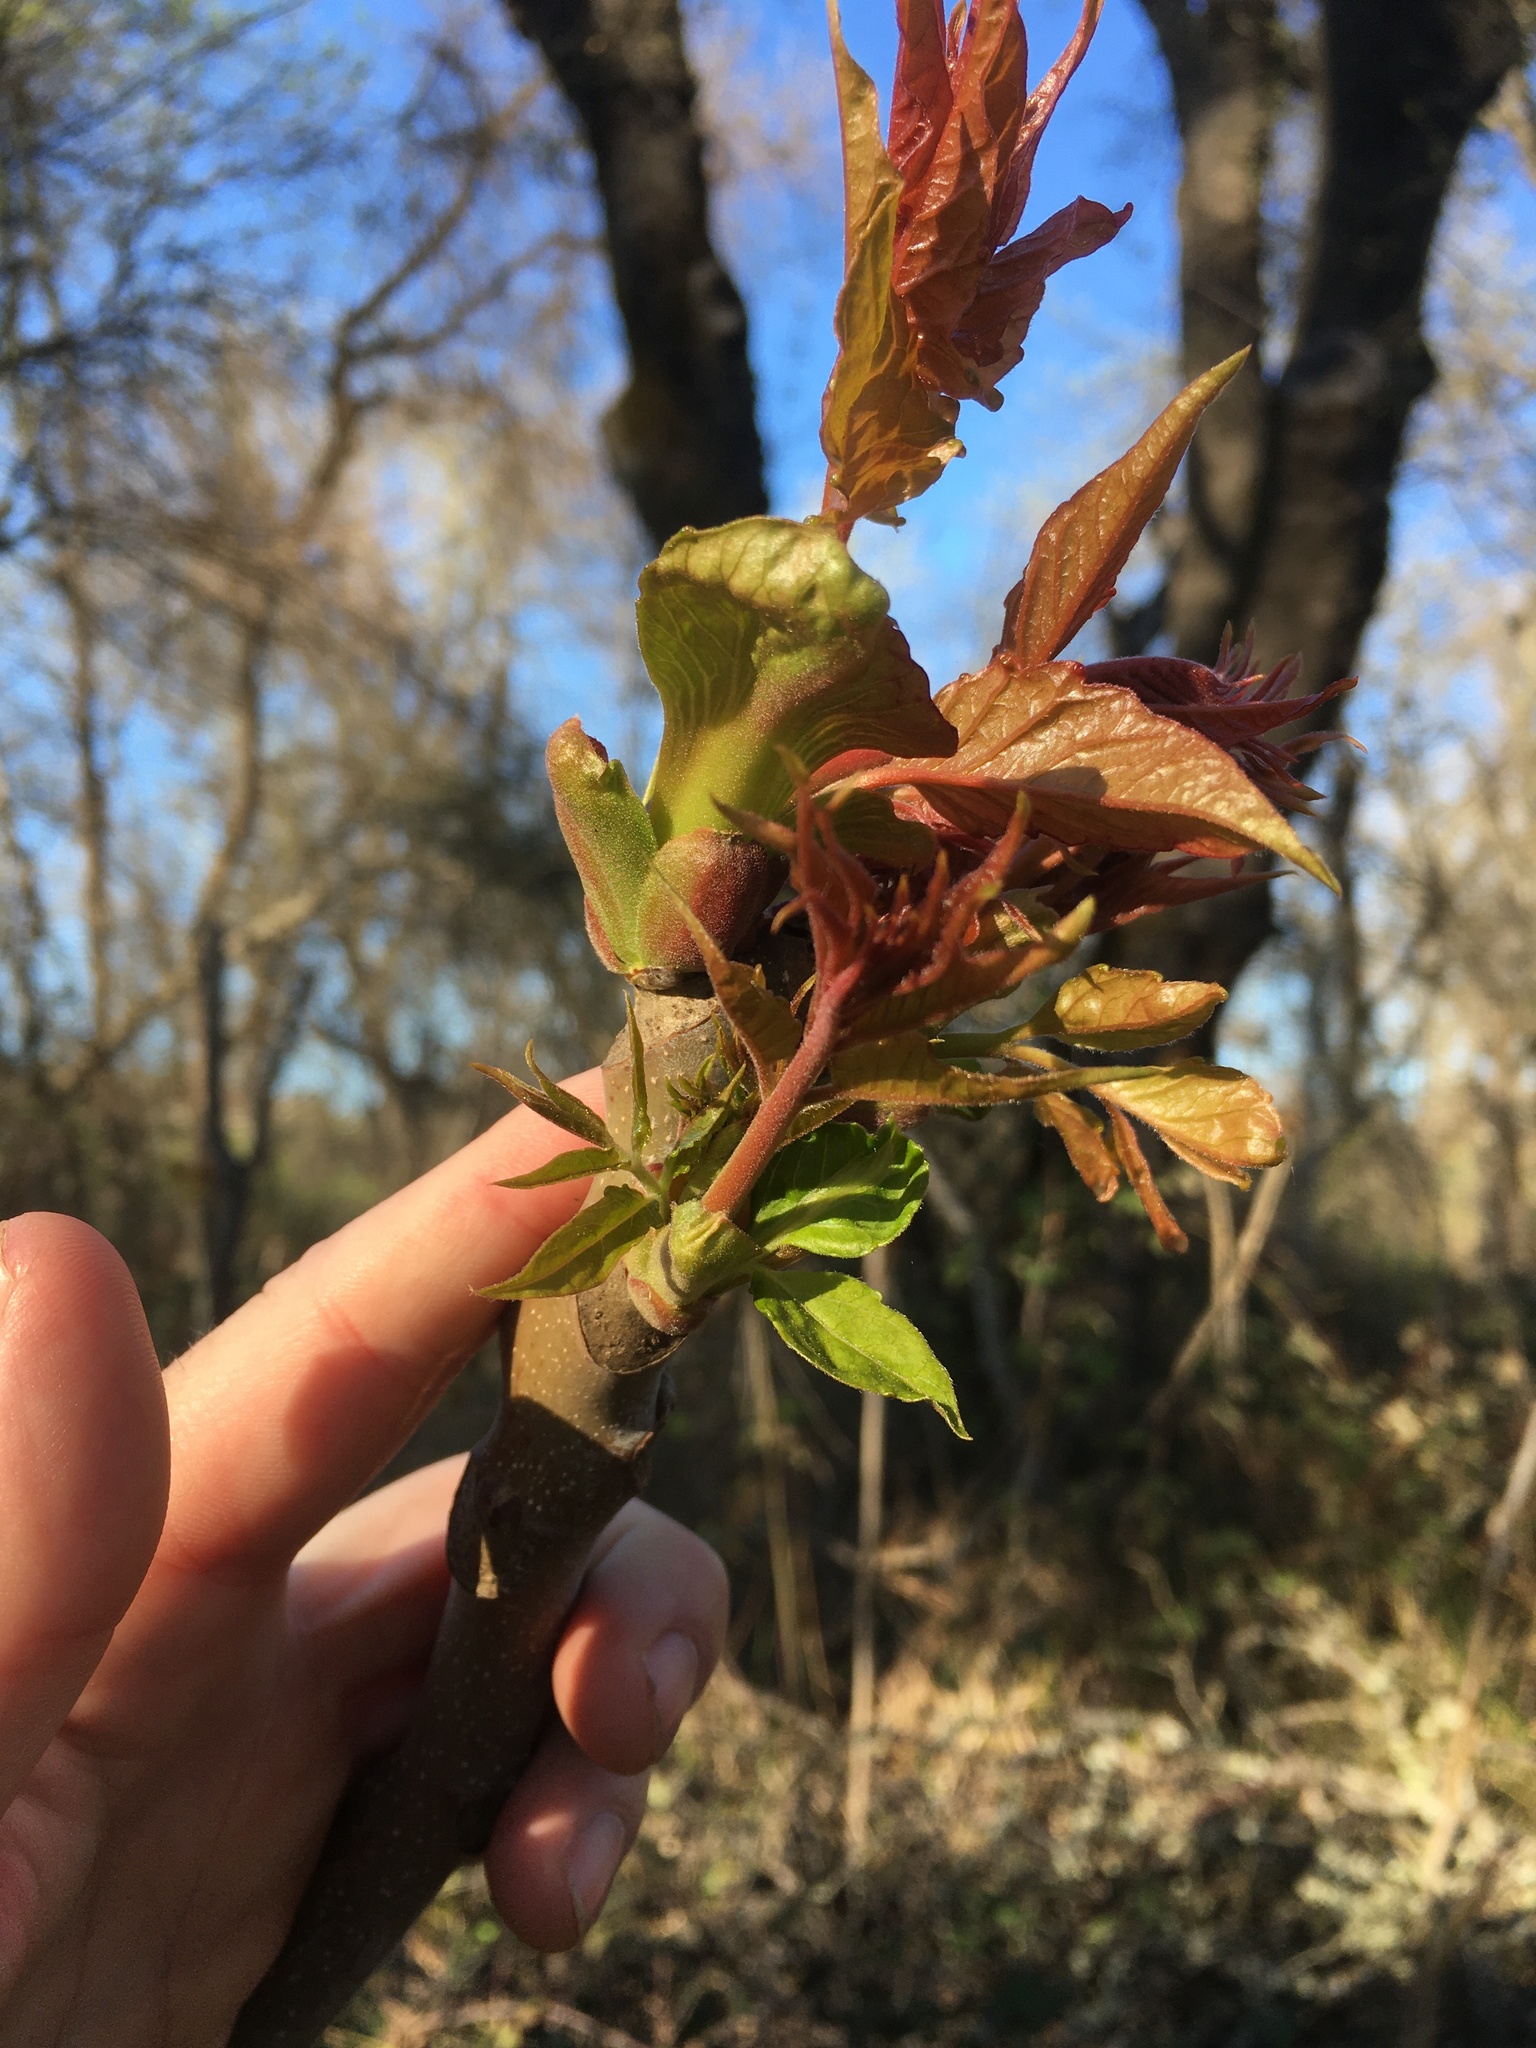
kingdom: Plantae
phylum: Tracheophyta
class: Magnoliopsida
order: Sapindales
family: Simaroubaceae
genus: Ailanthus
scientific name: Ailanthus altissima
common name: Tree-of-heaven
